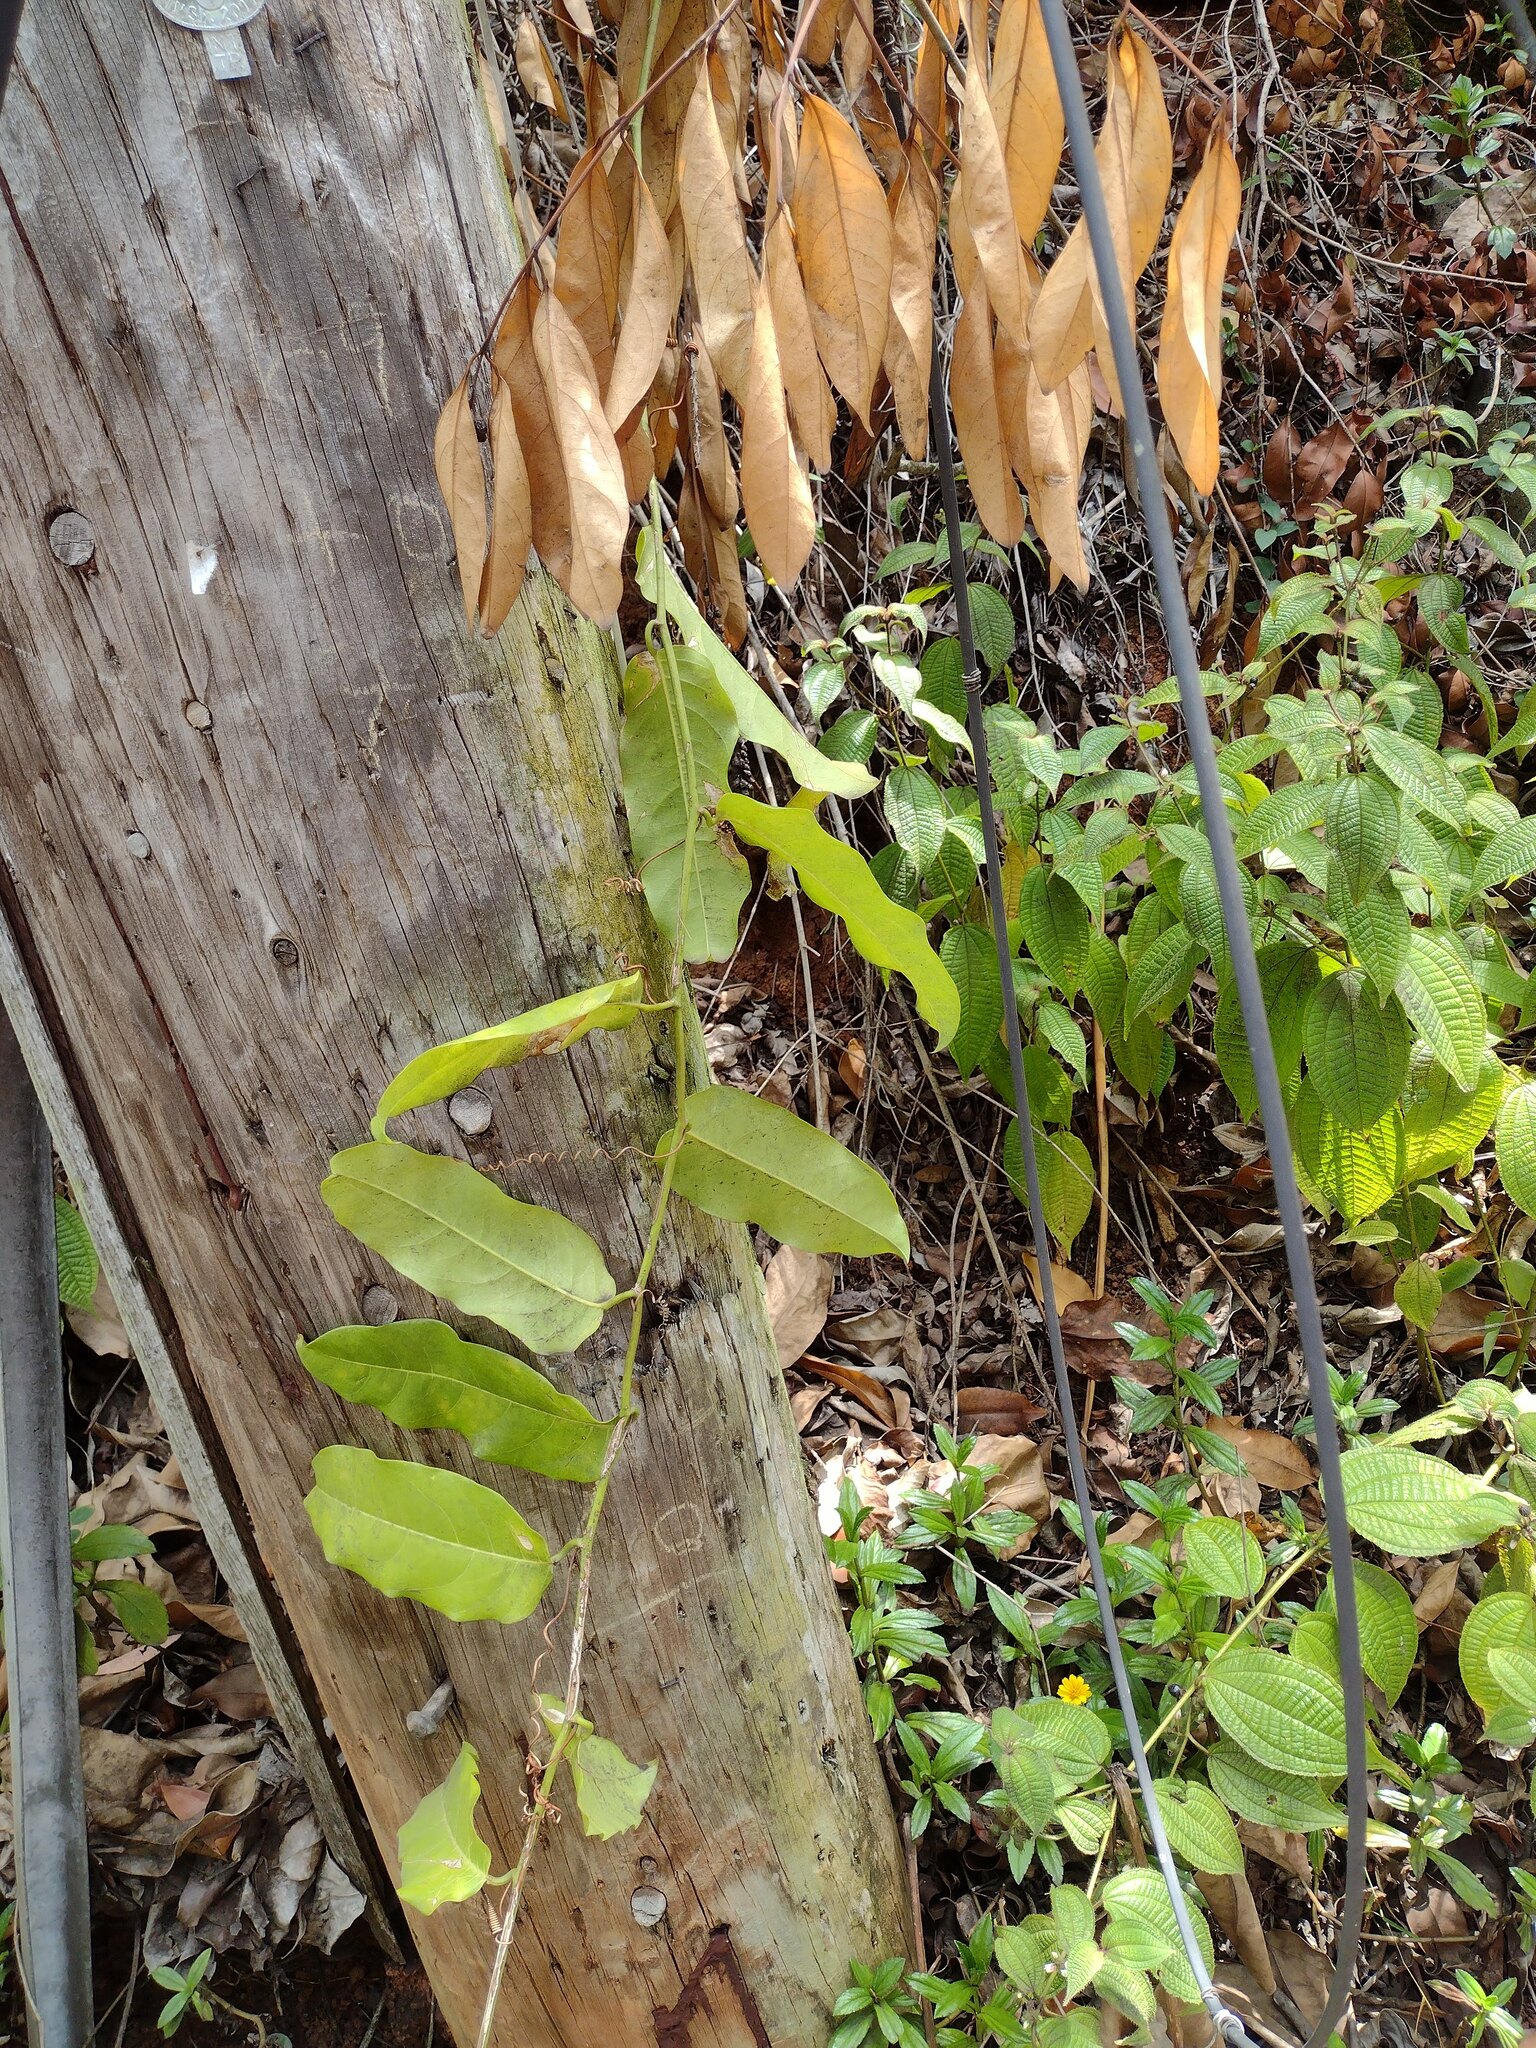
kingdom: Plantae
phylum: Tracheophyta
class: Magnoliopsida
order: Malpighiales
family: Passifloraceae
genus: Passiflora
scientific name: Passiflora laurifolia
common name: Bell apple
